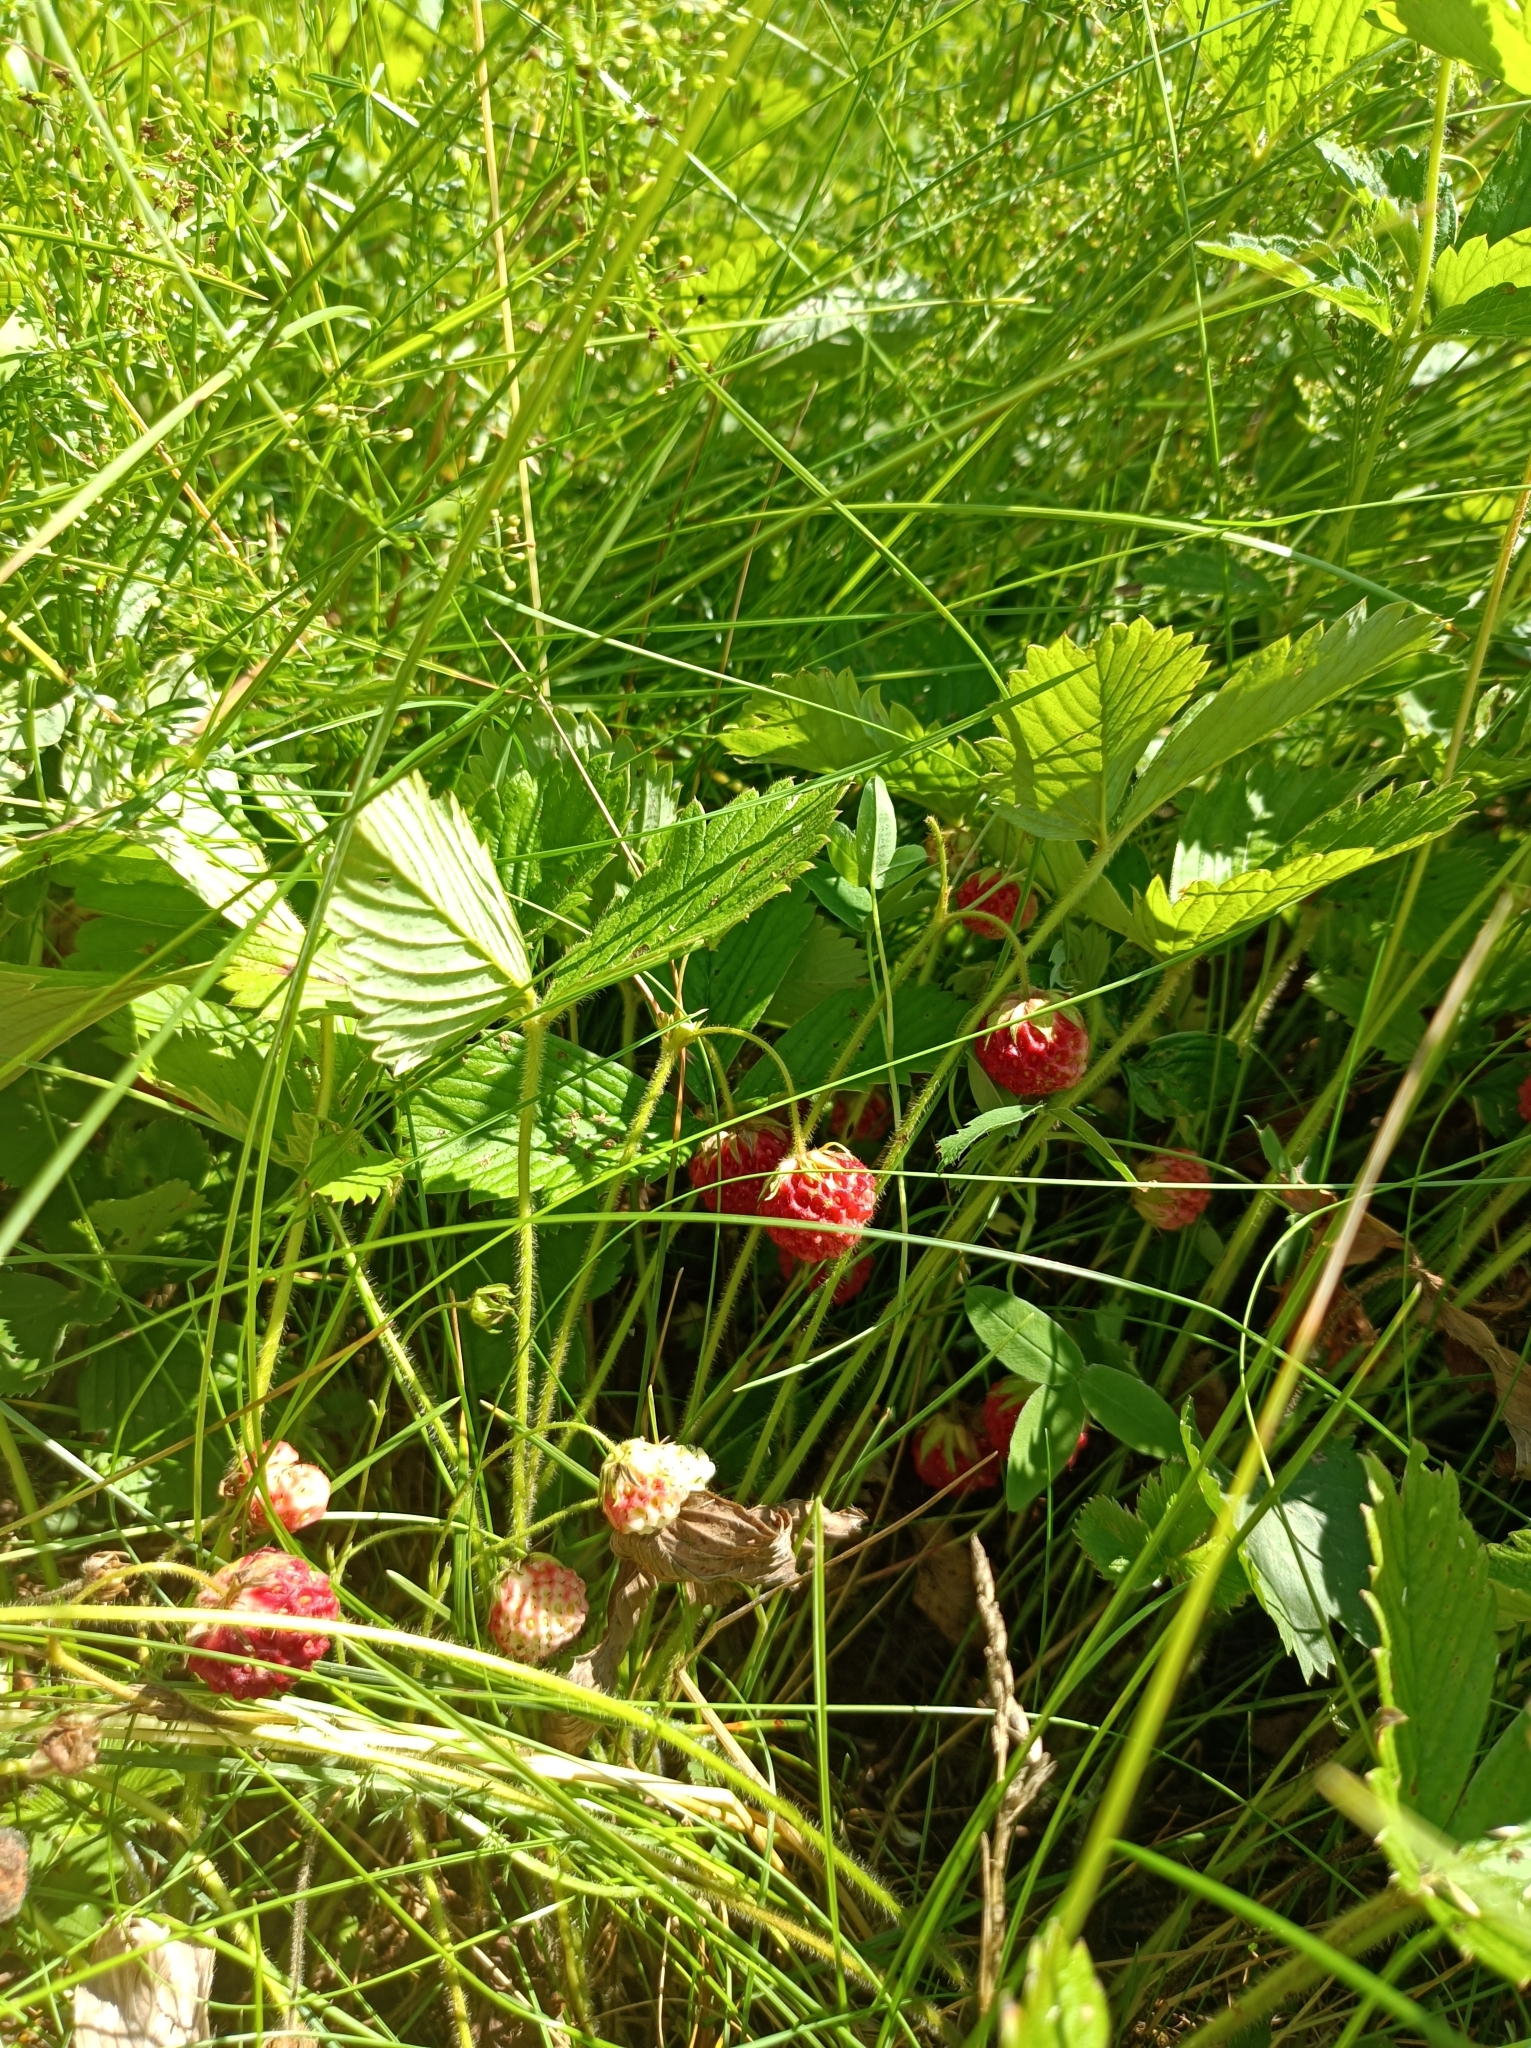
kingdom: Plantae
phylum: Tracheophyta
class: Magnoliopsida
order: Rosales
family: Rosaceae
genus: Fragaria
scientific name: Fragaria viridis
